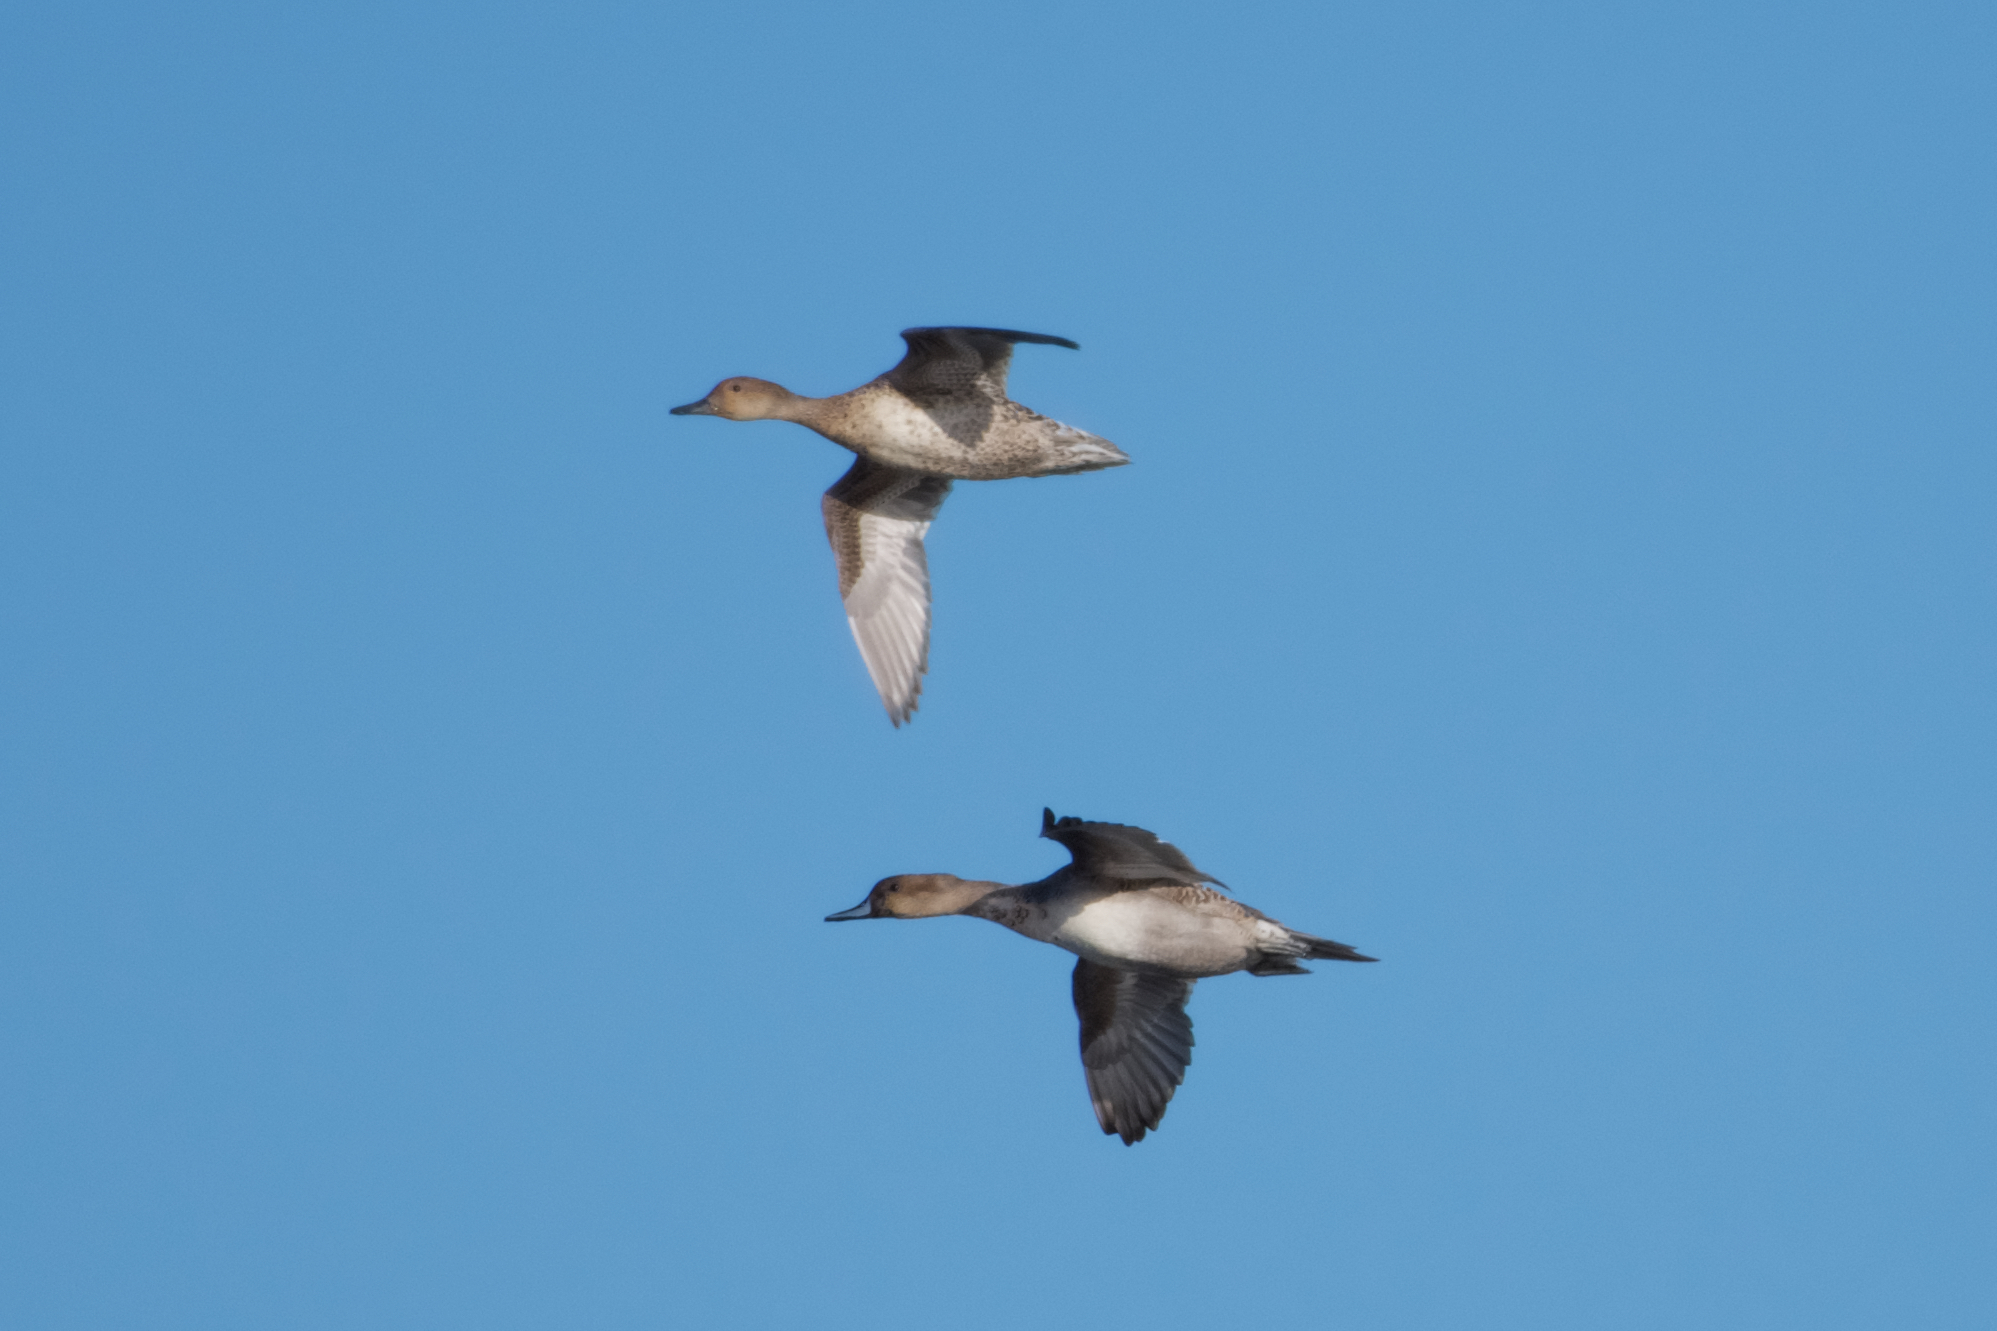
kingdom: Animalia
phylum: Chordata
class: Aves
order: Anseriformes
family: Anatidae
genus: Anas
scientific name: Anas acuta
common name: Northern pintail
